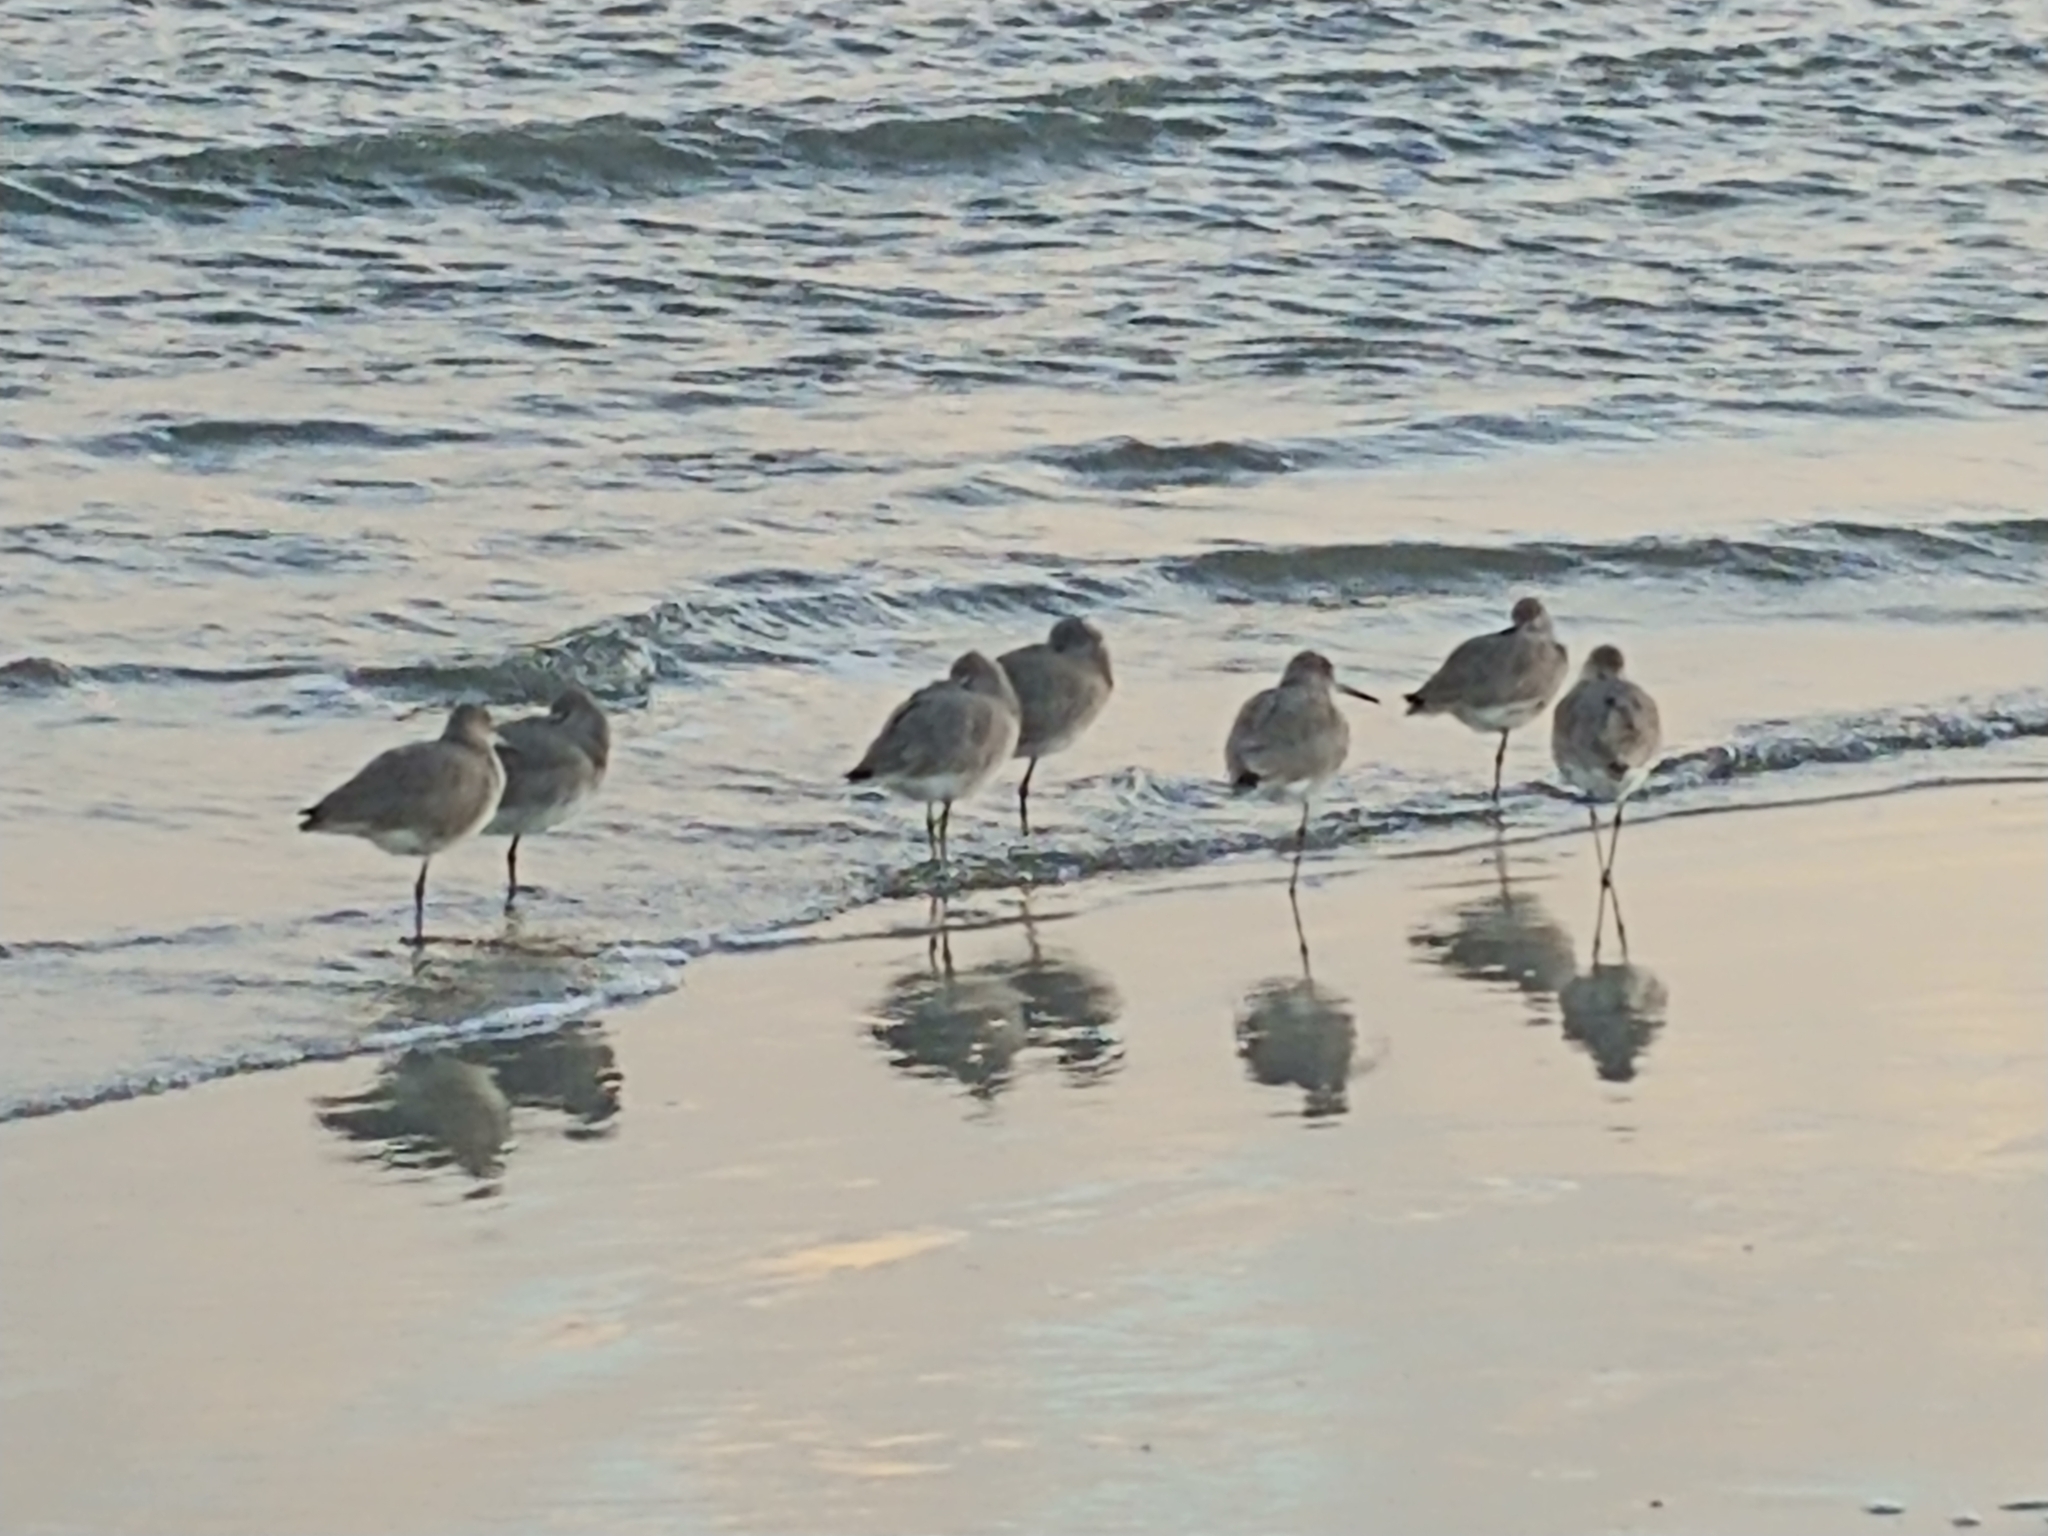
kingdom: Animalia
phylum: Chordata
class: Aves
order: Charadriiformes
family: Scolopacidae
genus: Tringa
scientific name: Tringa semipalmata
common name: Willet
